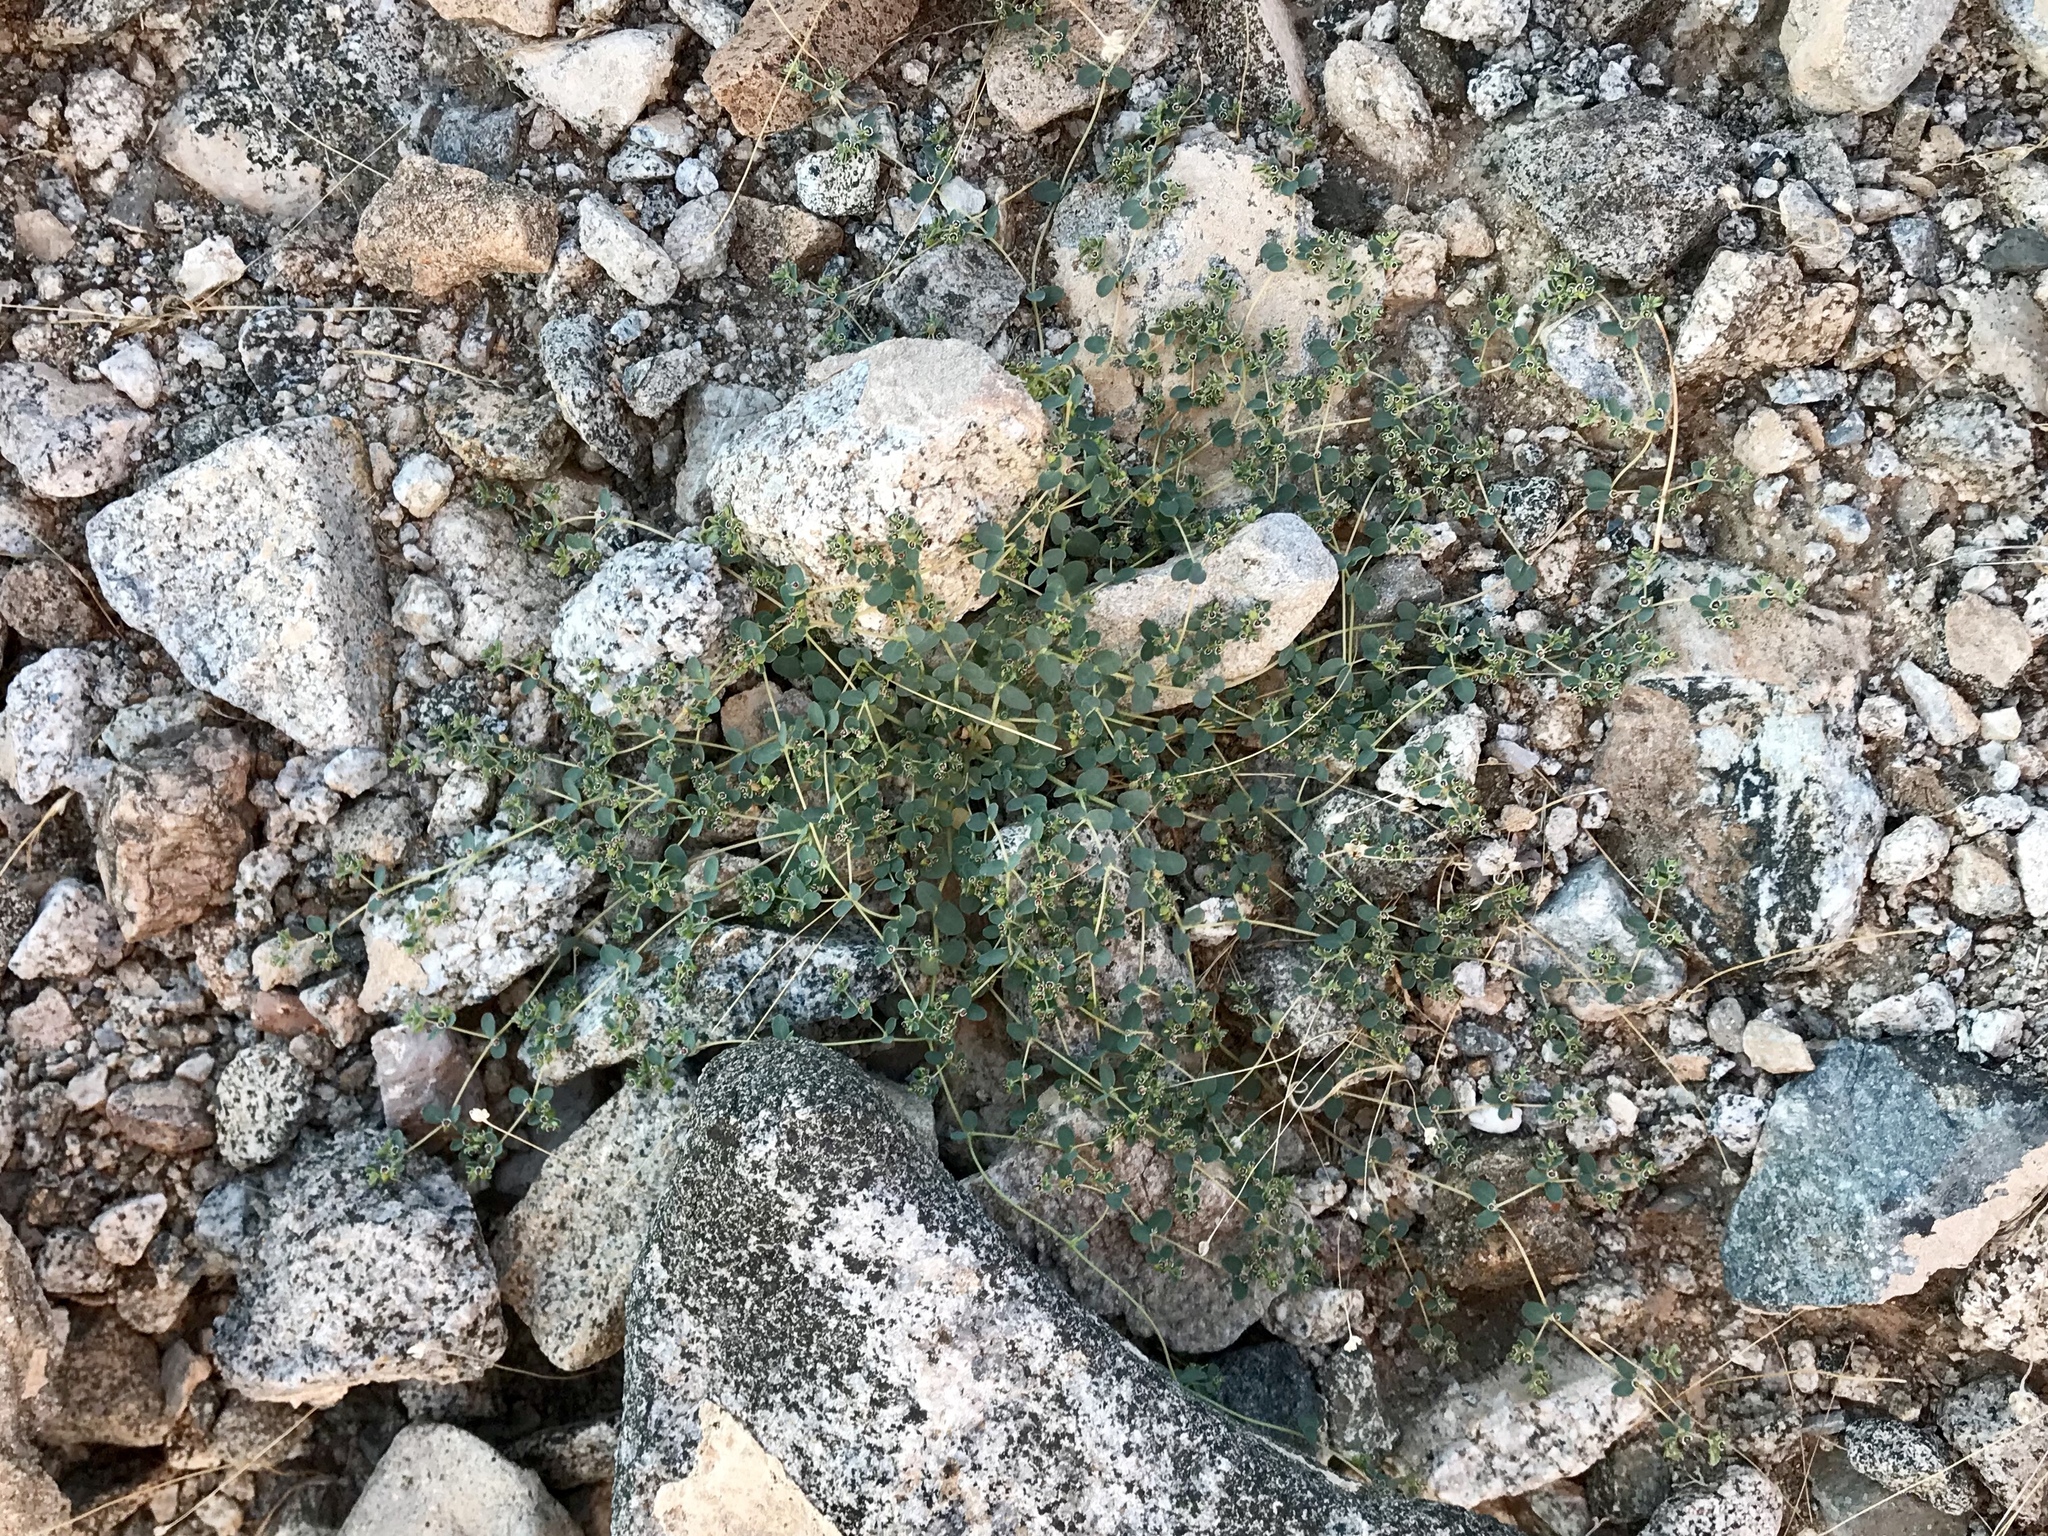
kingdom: Plantae
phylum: Tracheophyta
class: Magnoliopsida
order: Malpighiales
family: Euphorbiaceae
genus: Euphorbia
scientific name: Euphorbia polycarpa
